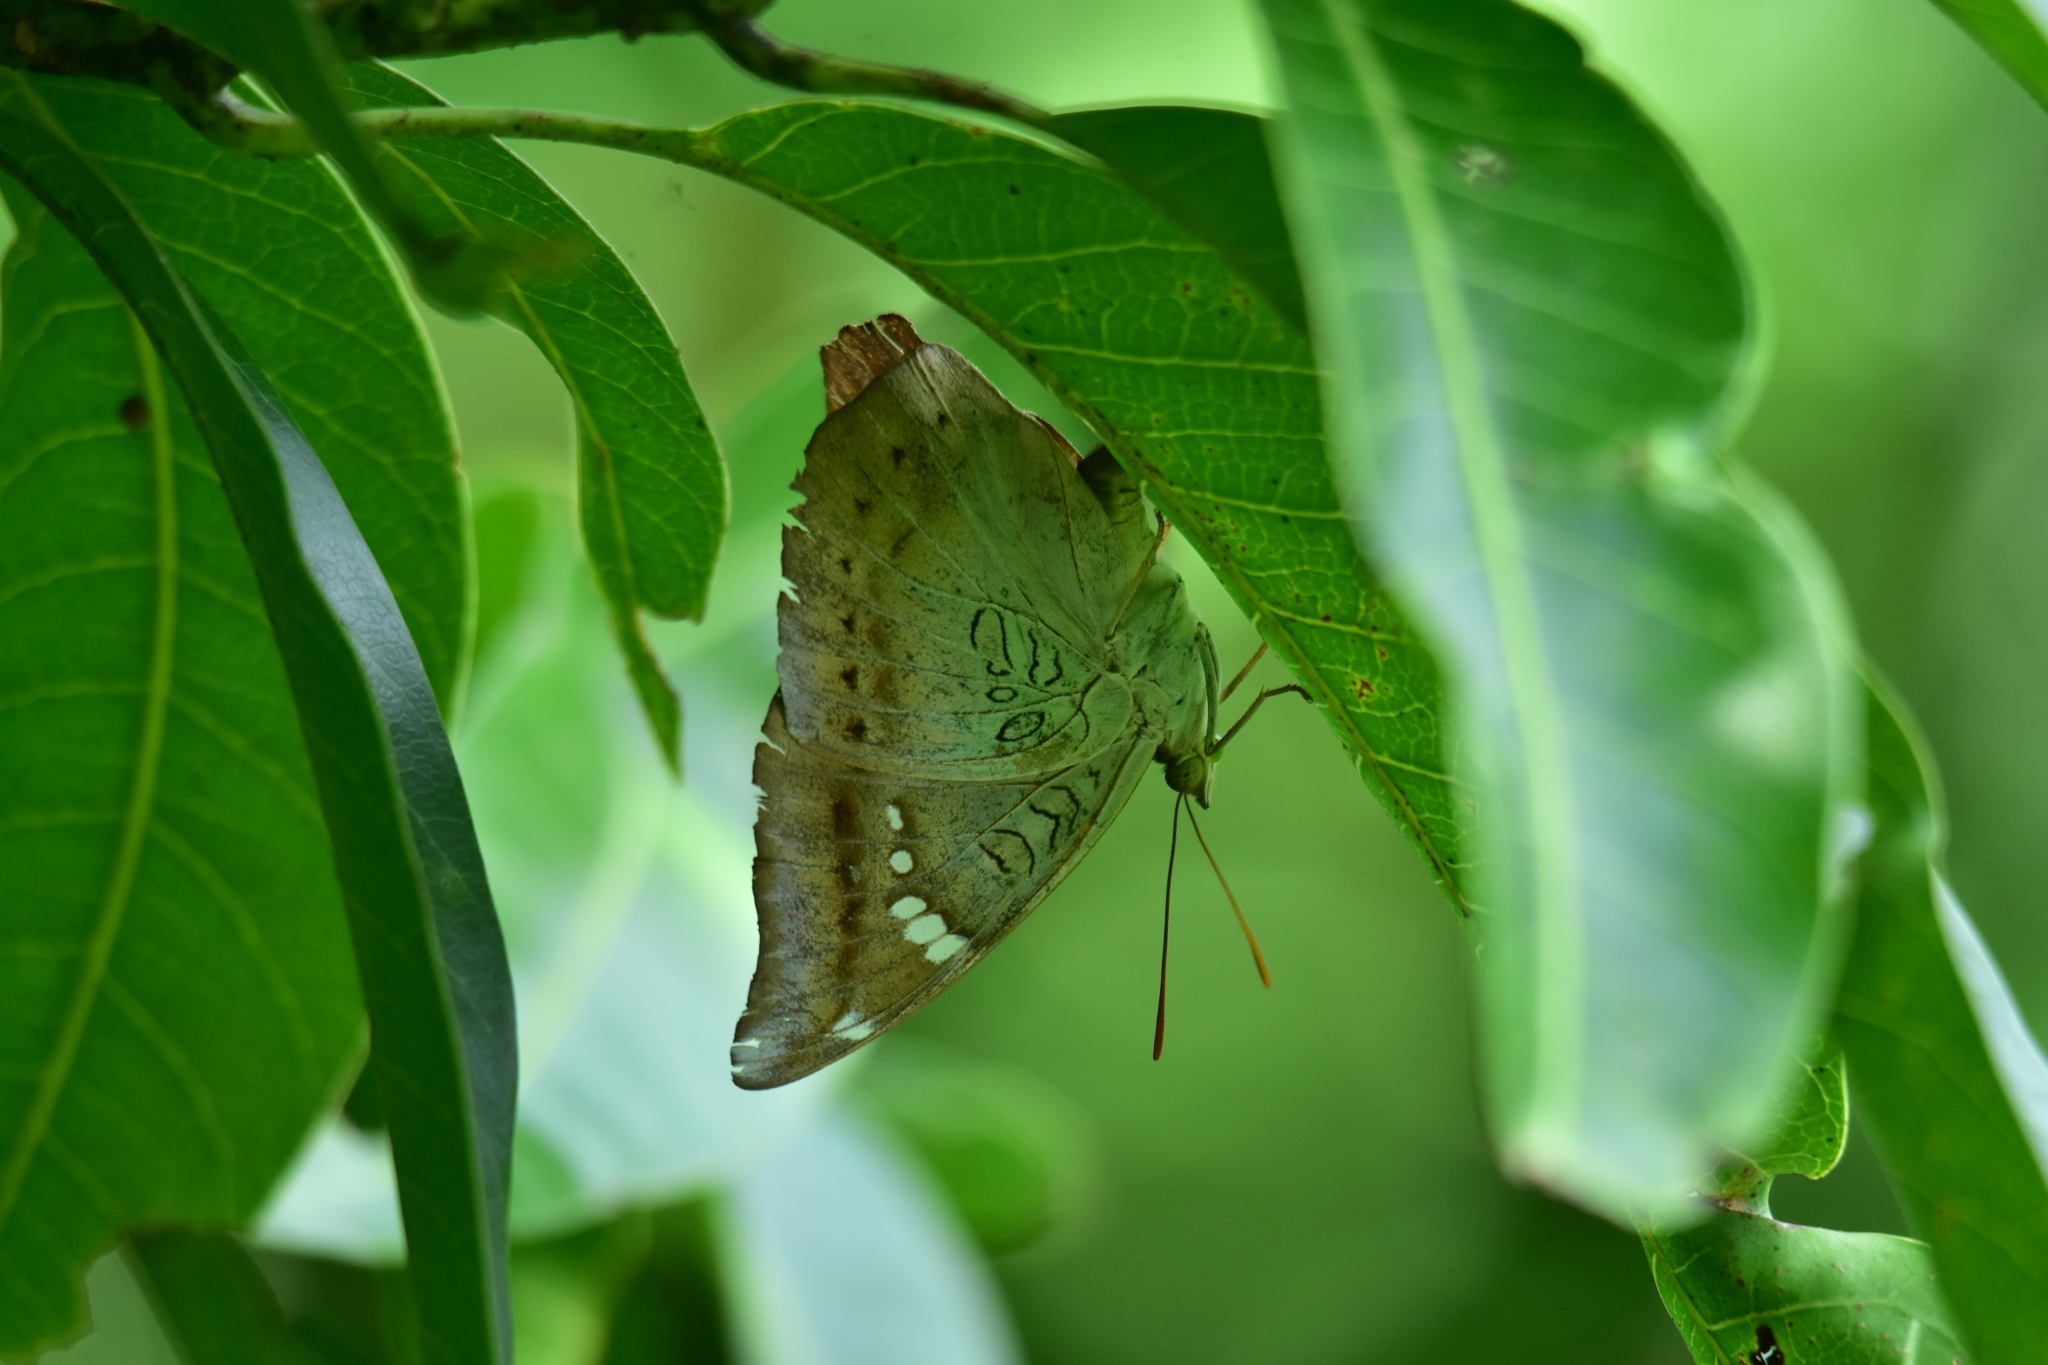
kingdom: Animalia
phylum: Arthropoda
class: Insecta
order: Lepidoptera
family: Nymphalidae
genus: Euthalia
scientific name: Euthalia aconthea
